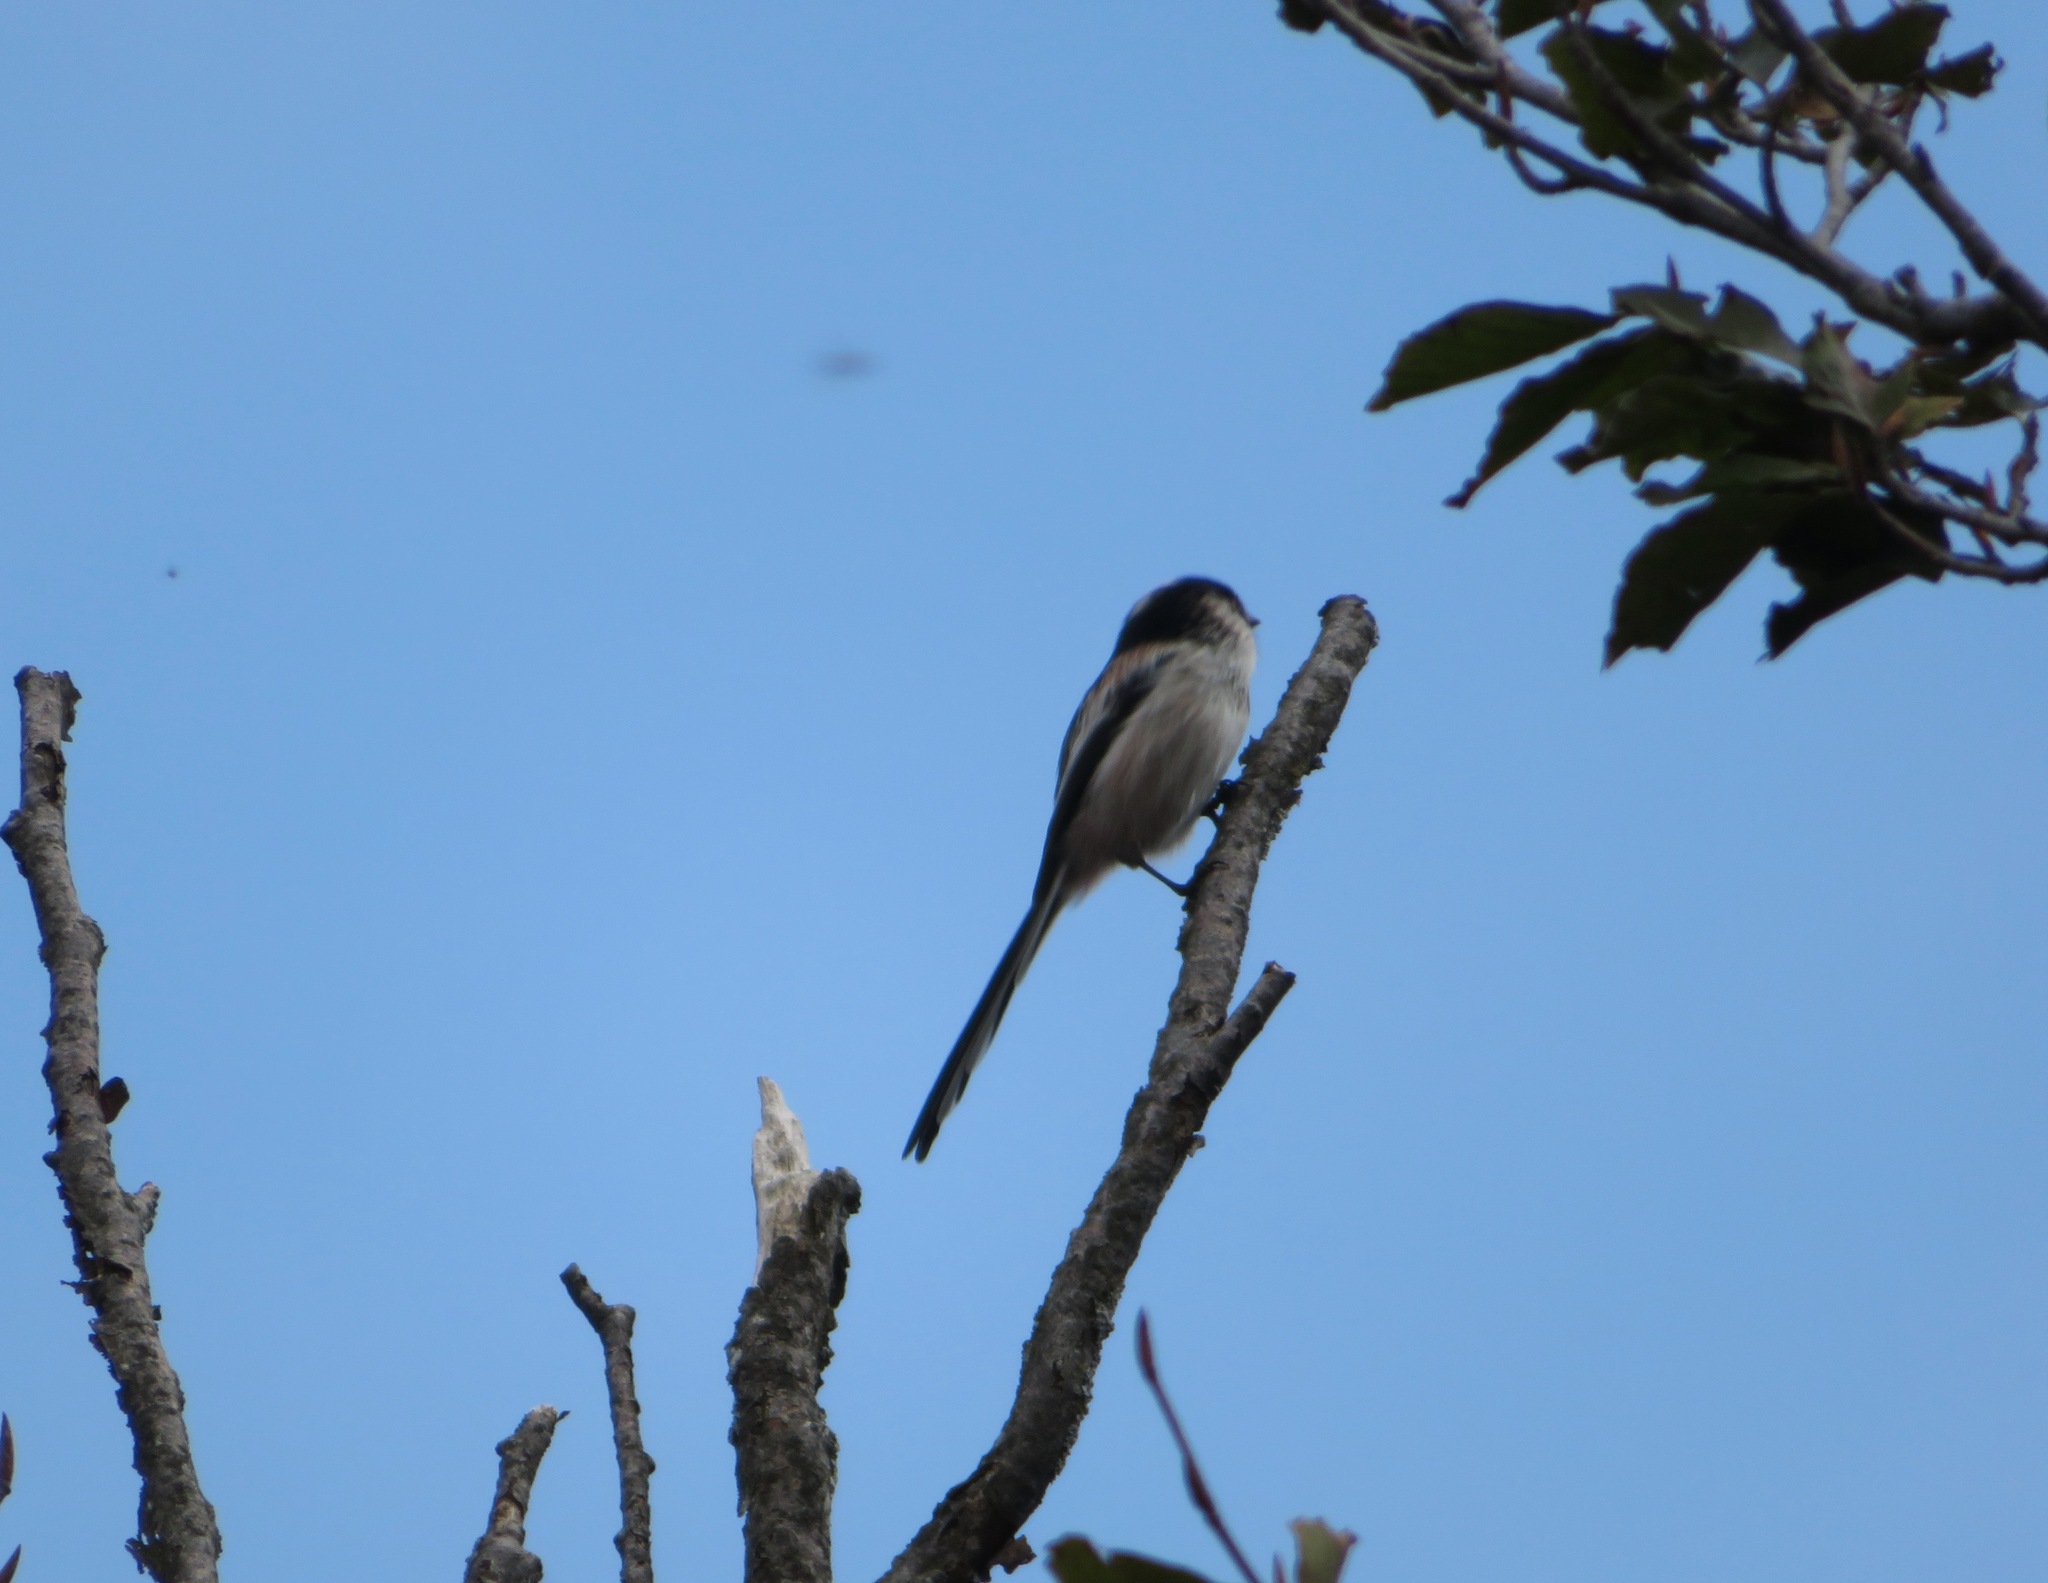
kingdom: Animalia
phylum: Chordata
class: Aves
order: Passeriformes
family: Aegithalidae
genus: Aegithalos
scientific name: Aegithalos caudatus
